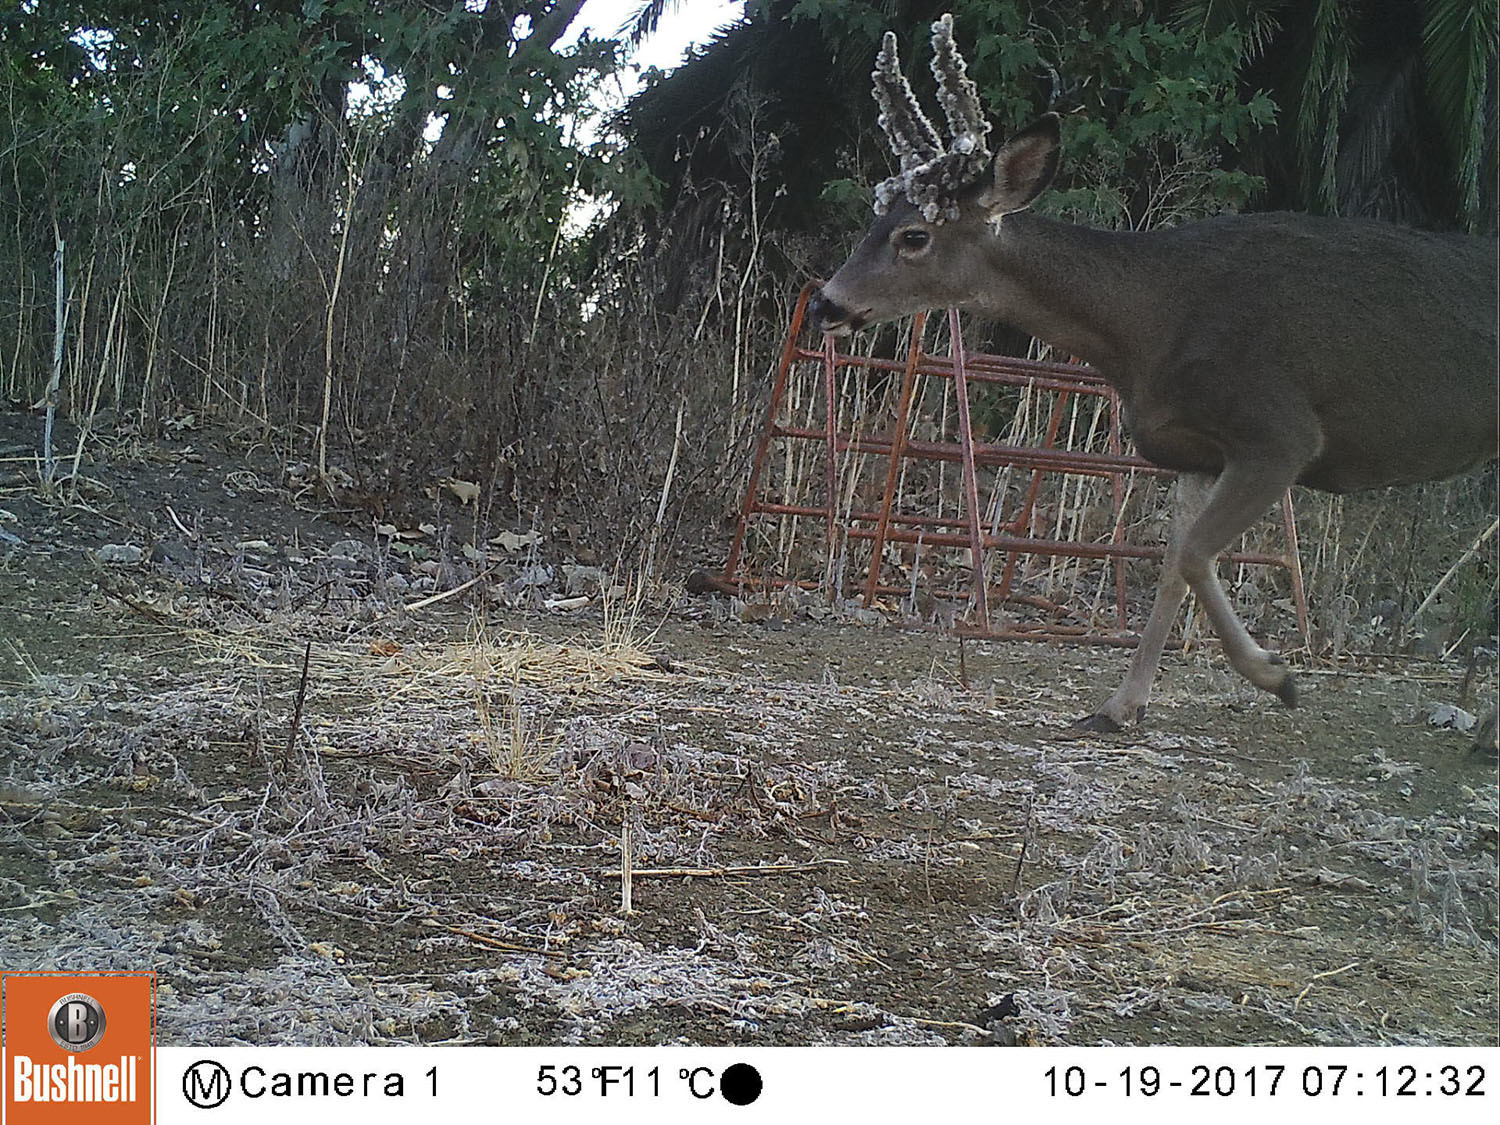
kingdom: Animalia
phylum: Chordata
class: Mammalia
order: Artiodactyla
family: Cervidae
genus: Odocoileus
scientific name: Odocoileus hemionus
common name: Mule deer
